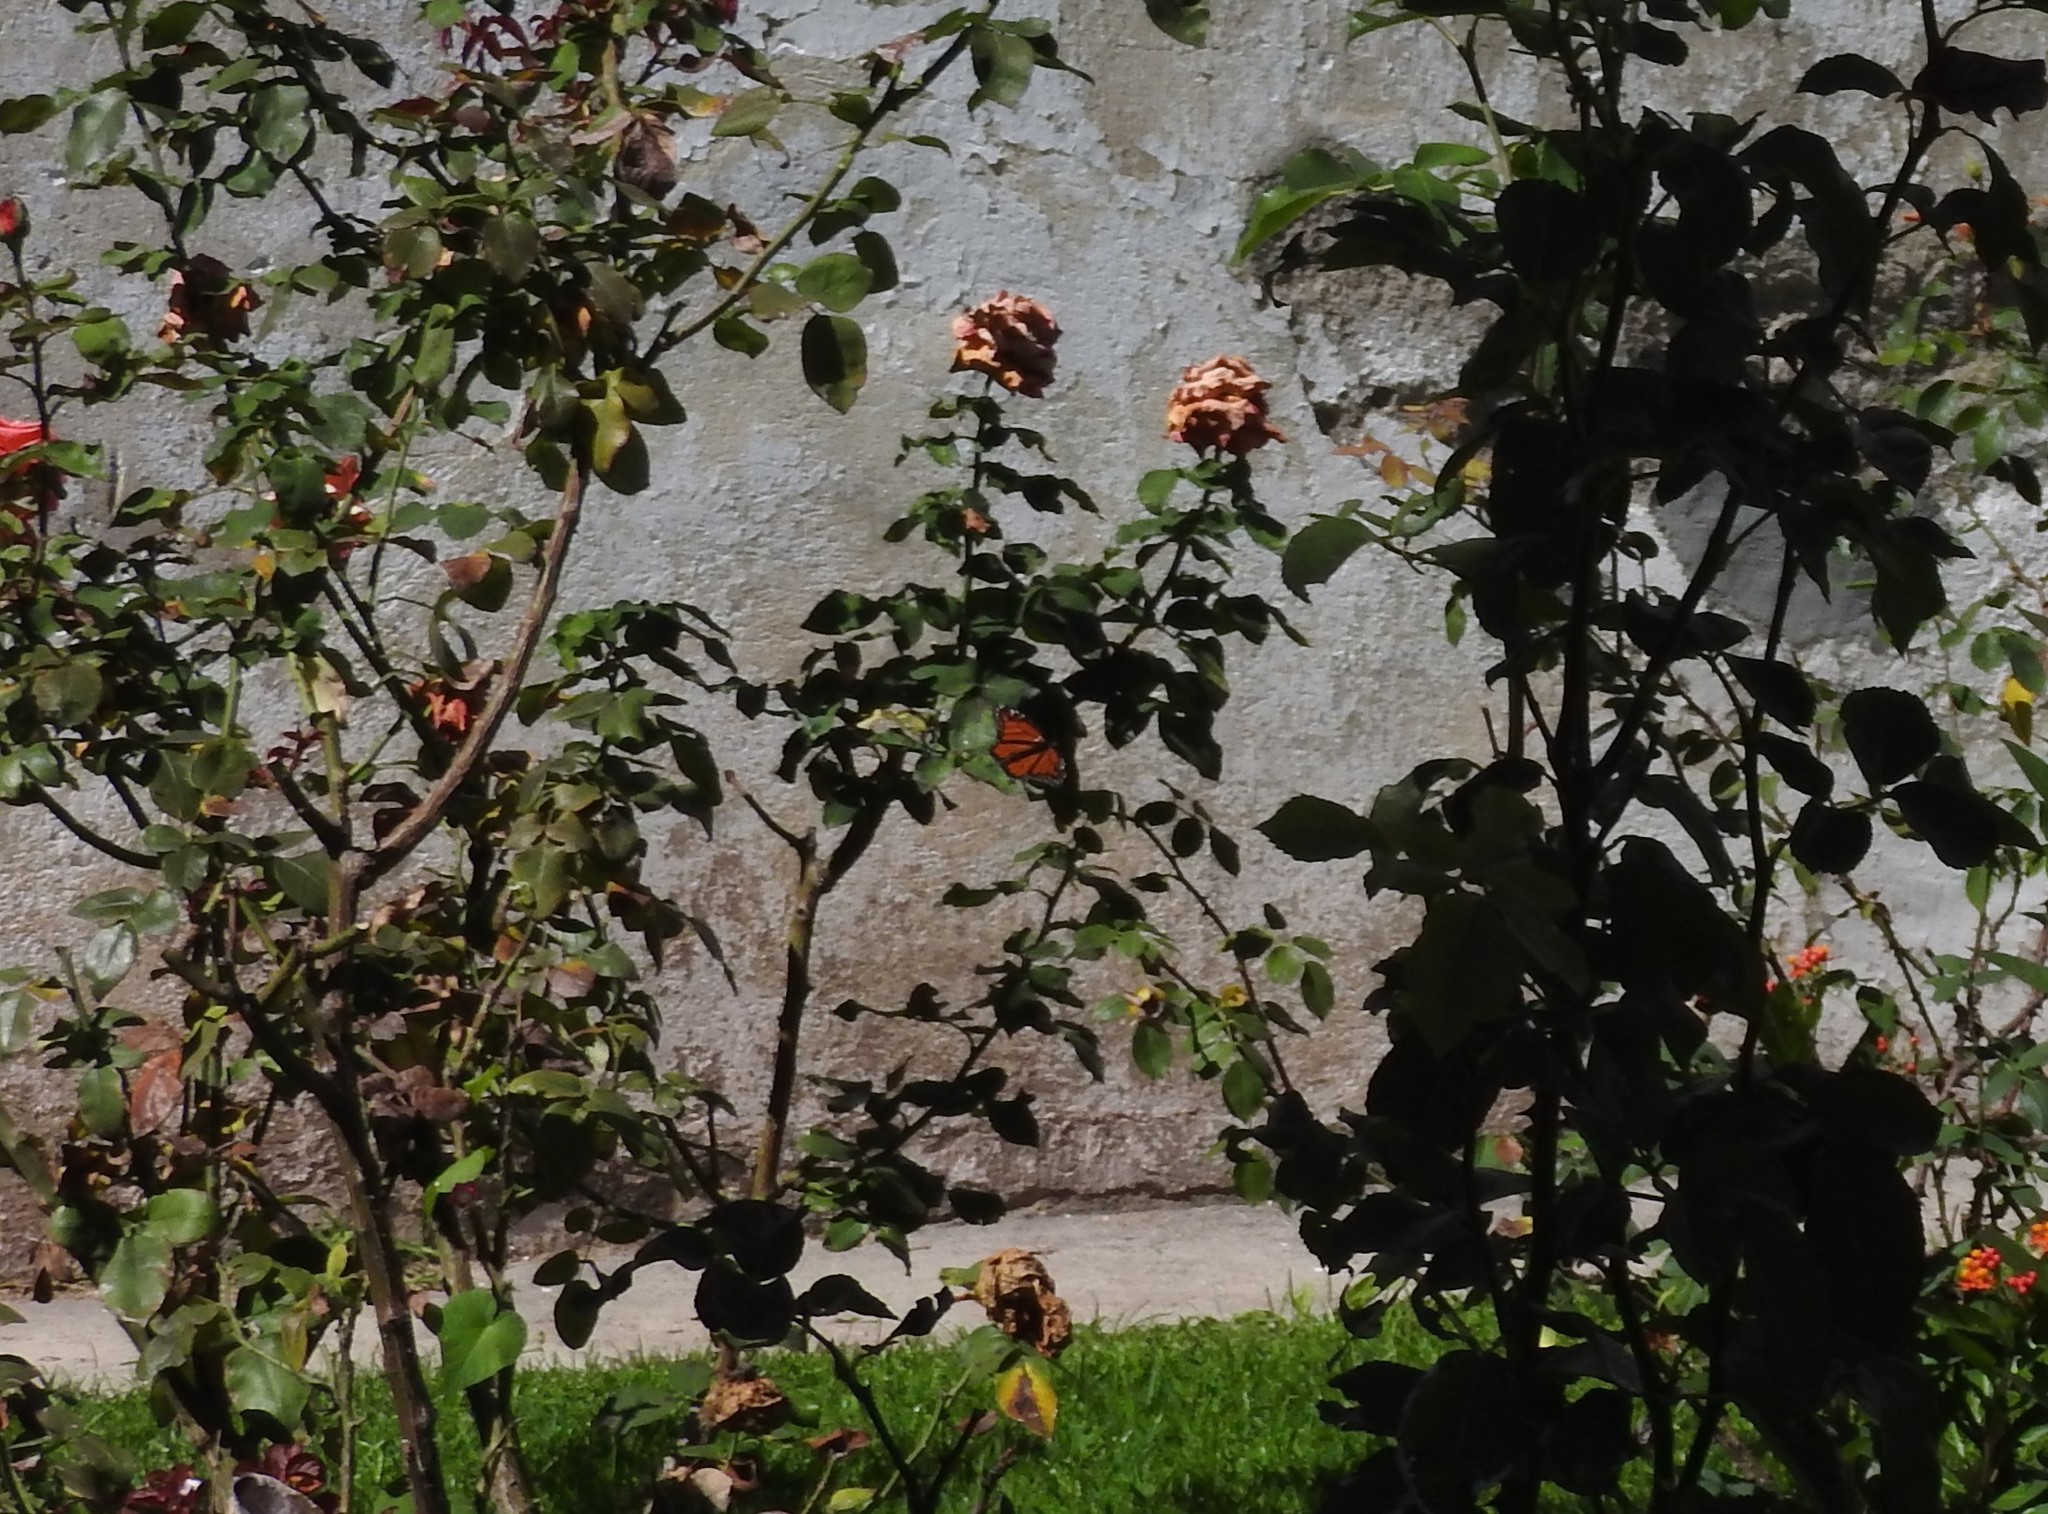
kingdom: Animalia
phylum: Arthropoda
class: Insecta
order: Lepidoptera
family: Nymphalidae
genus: Danaus
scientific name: Danaus plexippus
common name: Monarch
